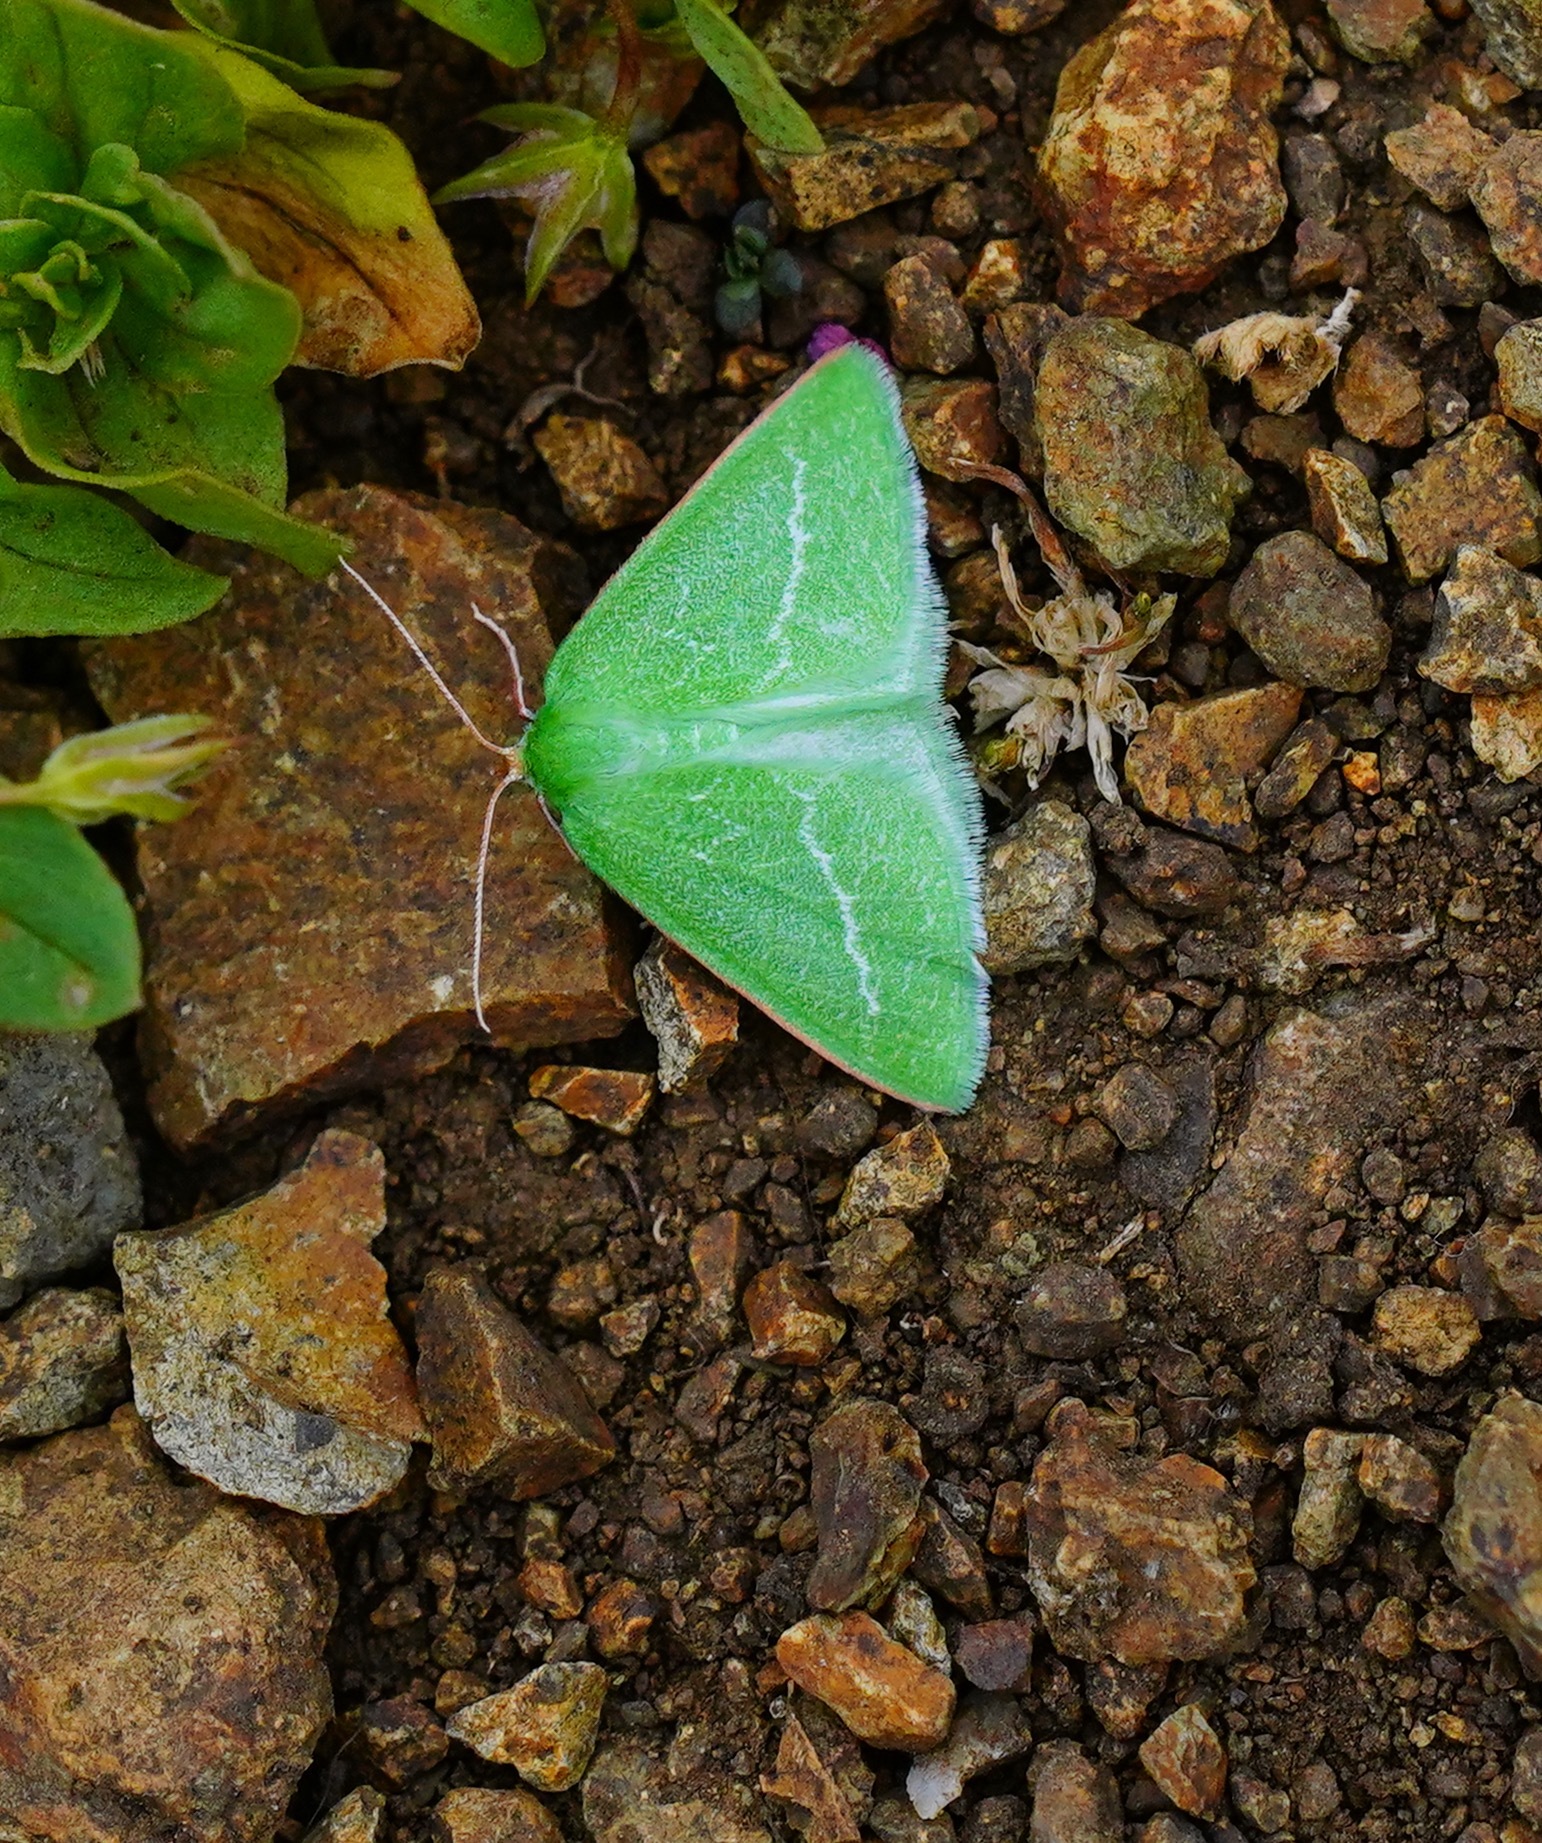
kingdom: Animalia
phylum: Arthropoda
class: Insecta
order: Lepidoptera
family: Geometridae
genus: Synchlora
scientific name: Synchlora faseolaria
